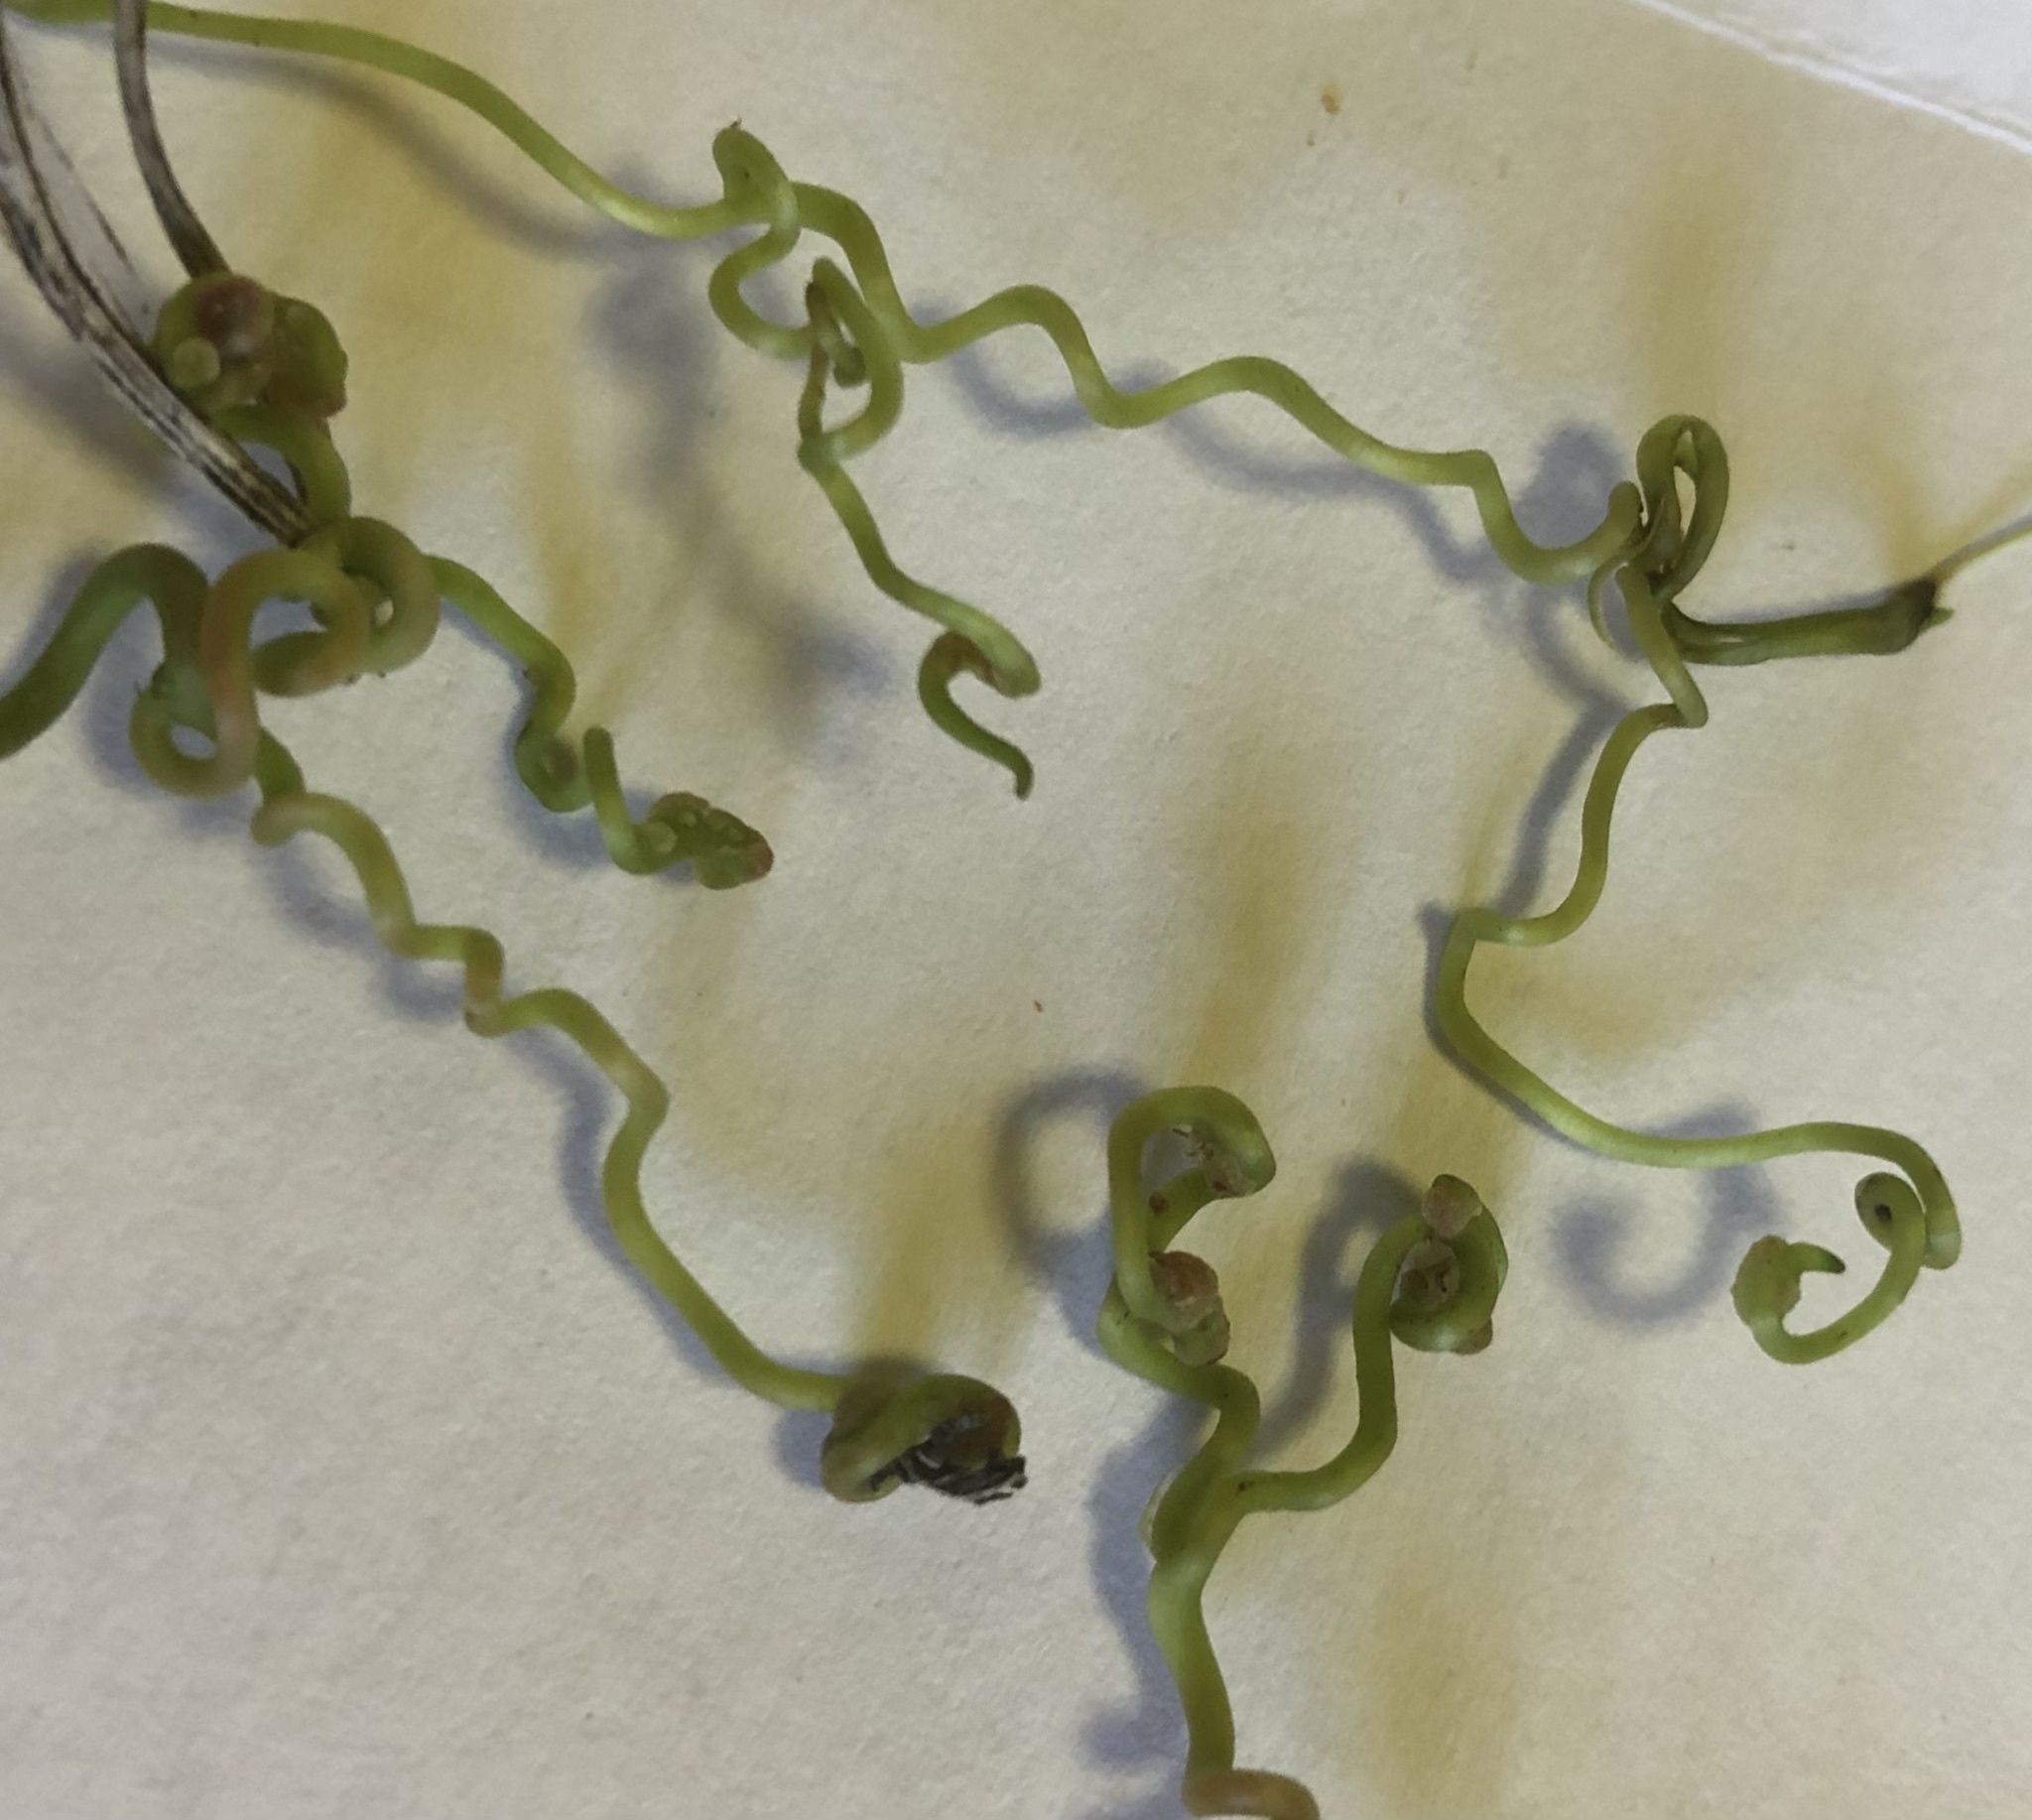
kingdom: Plantae
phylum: Tracheophyta
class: Magnoliopsida
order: Vitales
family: Vitaceae
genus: Parthenocissus
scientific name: Parthenocissus inserta
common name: False virginia-creeper
